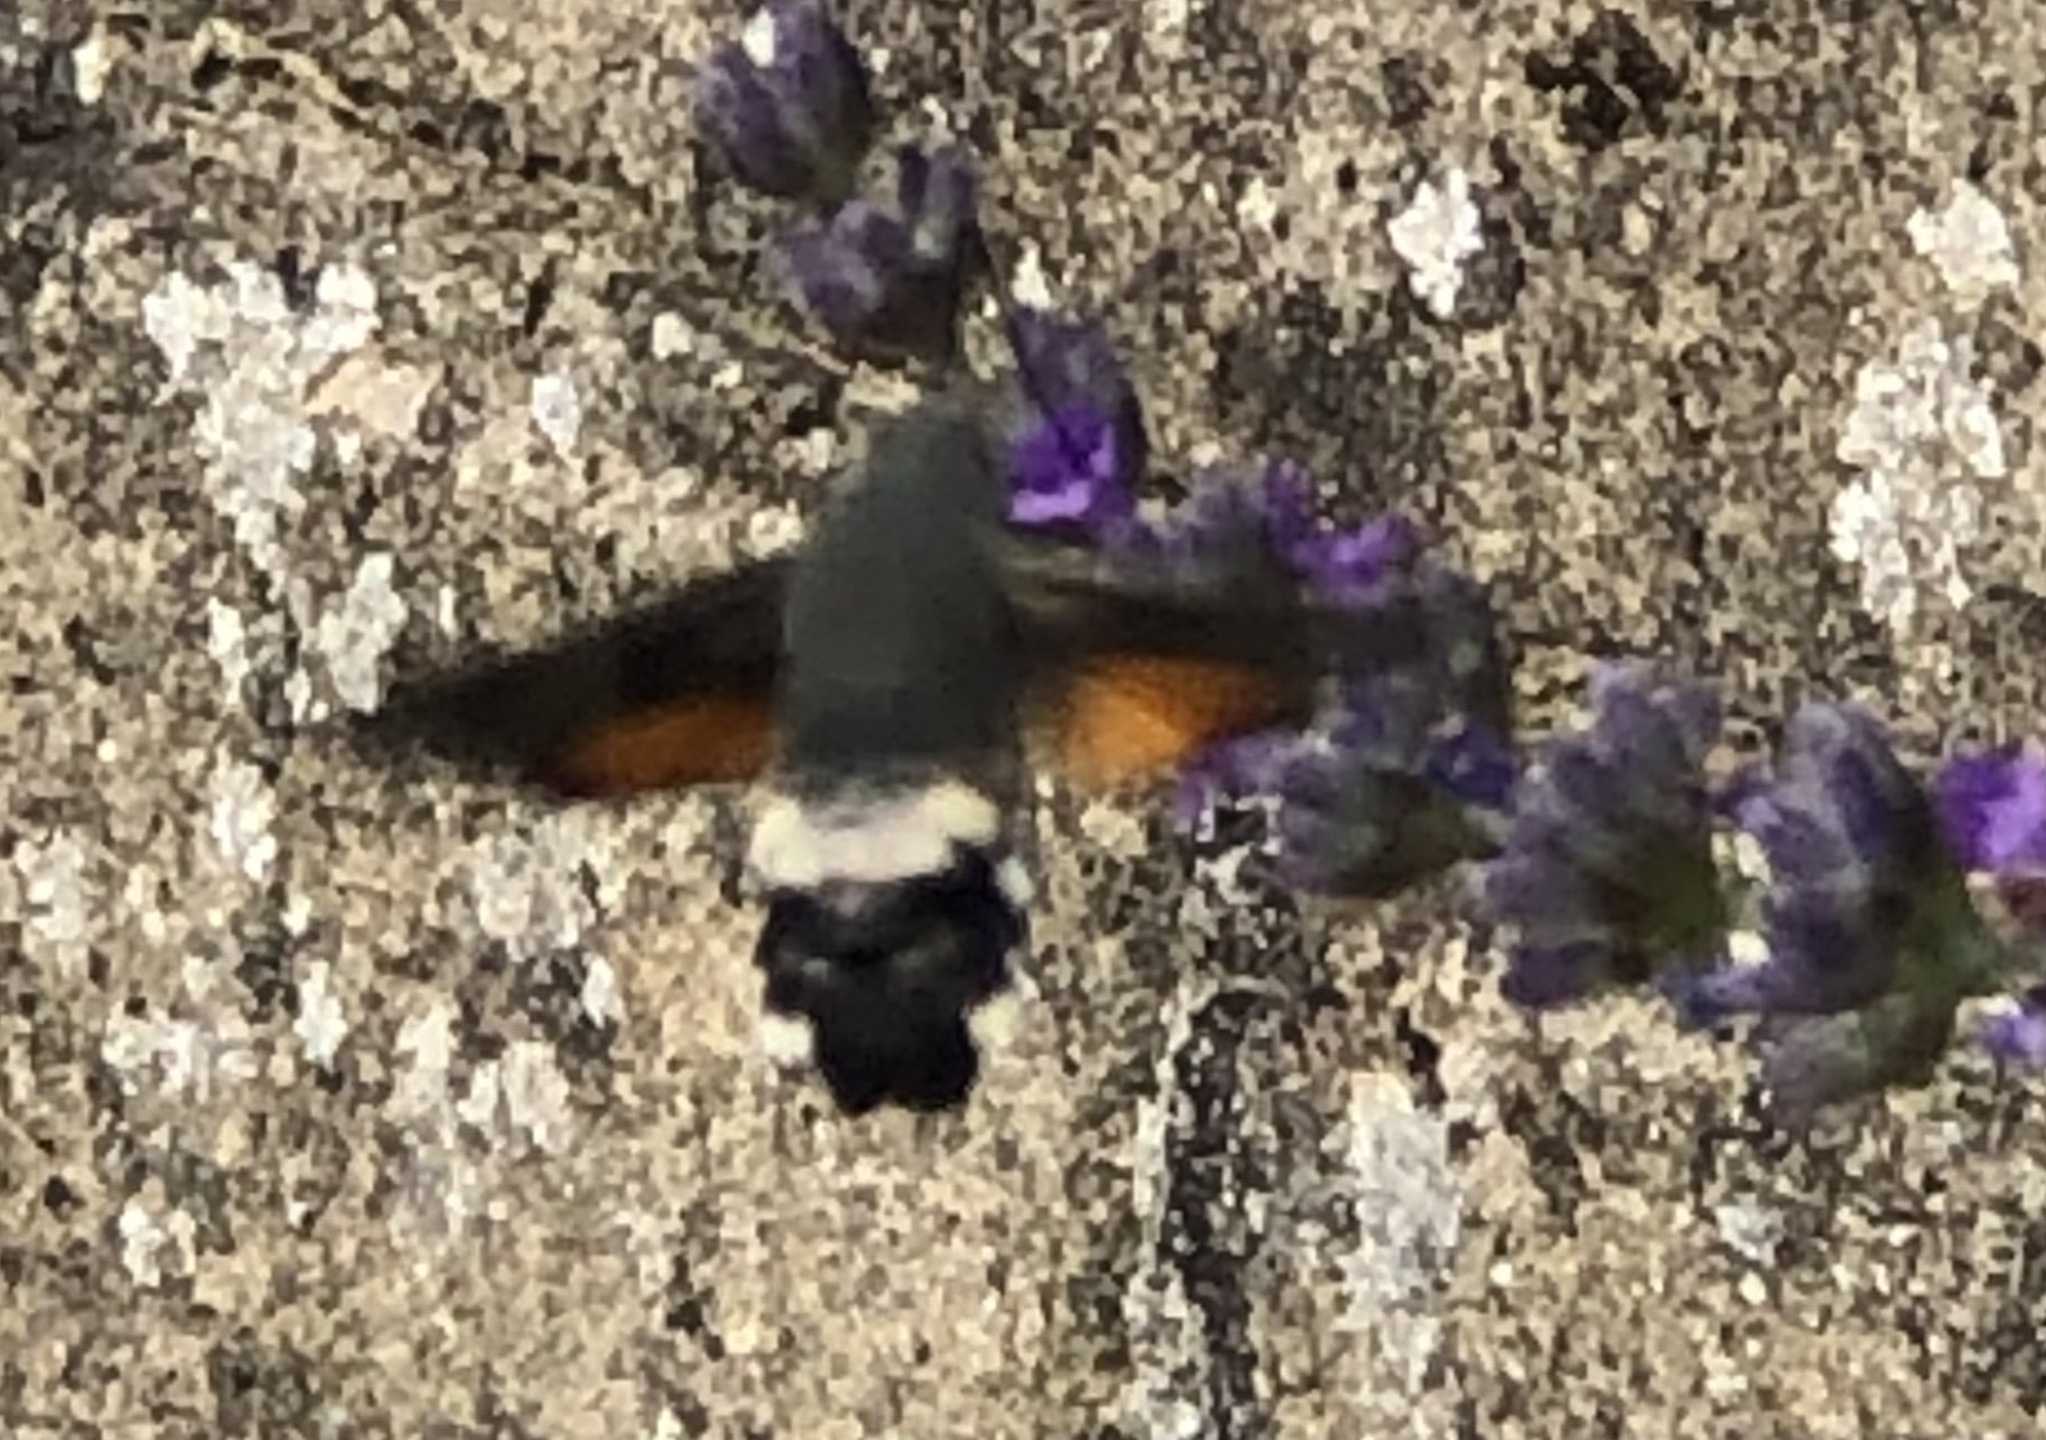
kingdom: Animalia
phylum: Arthropoda
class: Insecta
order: Lepidoptera
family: Sphingidae
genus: Macroglossum
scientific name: Macroglossum stellatarum
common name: Humming-bird hawk-moth
